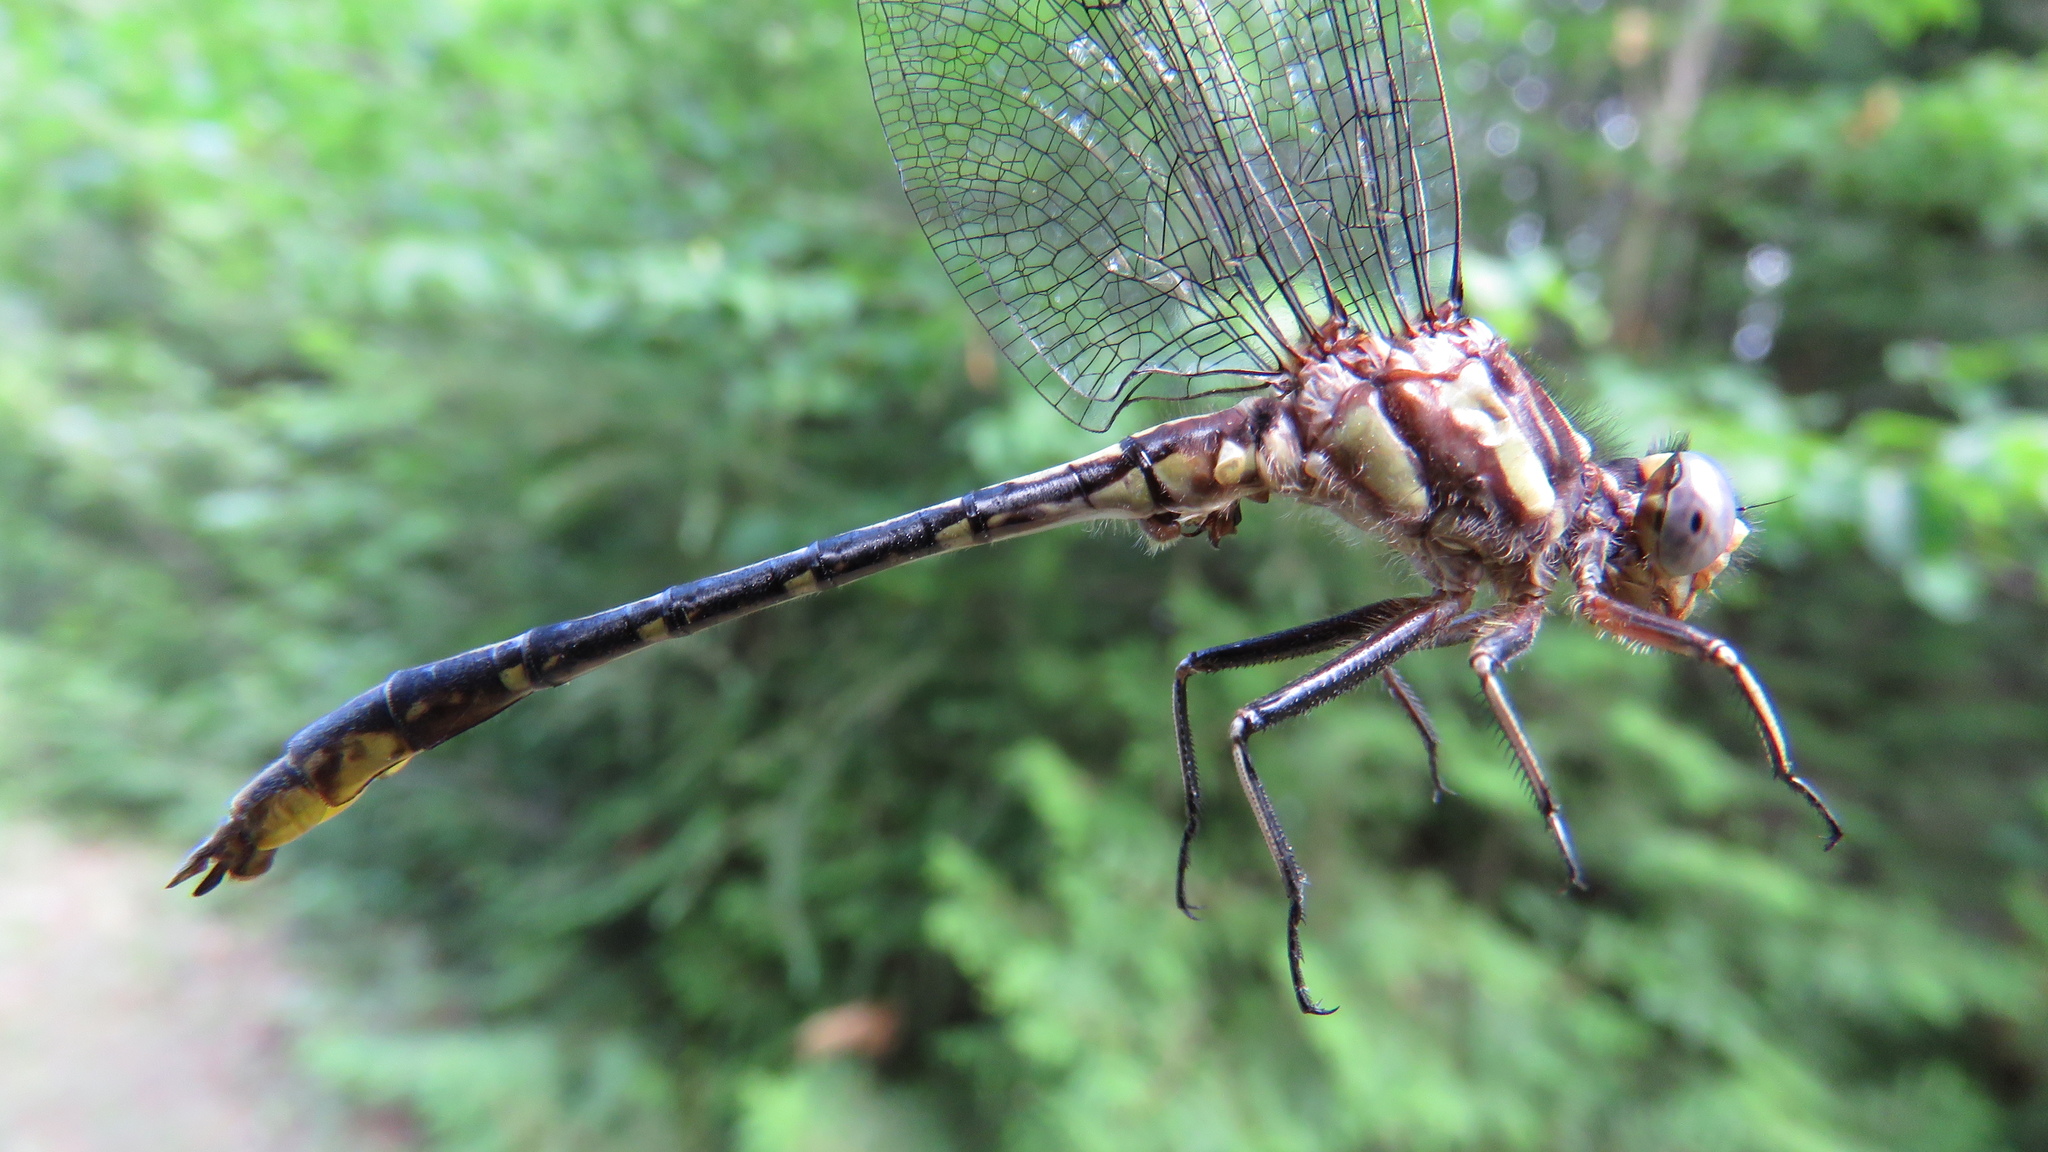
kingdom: Animalia
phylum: Arthropoda
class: Insecta
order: Odonata
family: Gomphidae
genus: Phanogomphus
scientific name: Phanogomphus exilis
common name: Lancet clubtail
